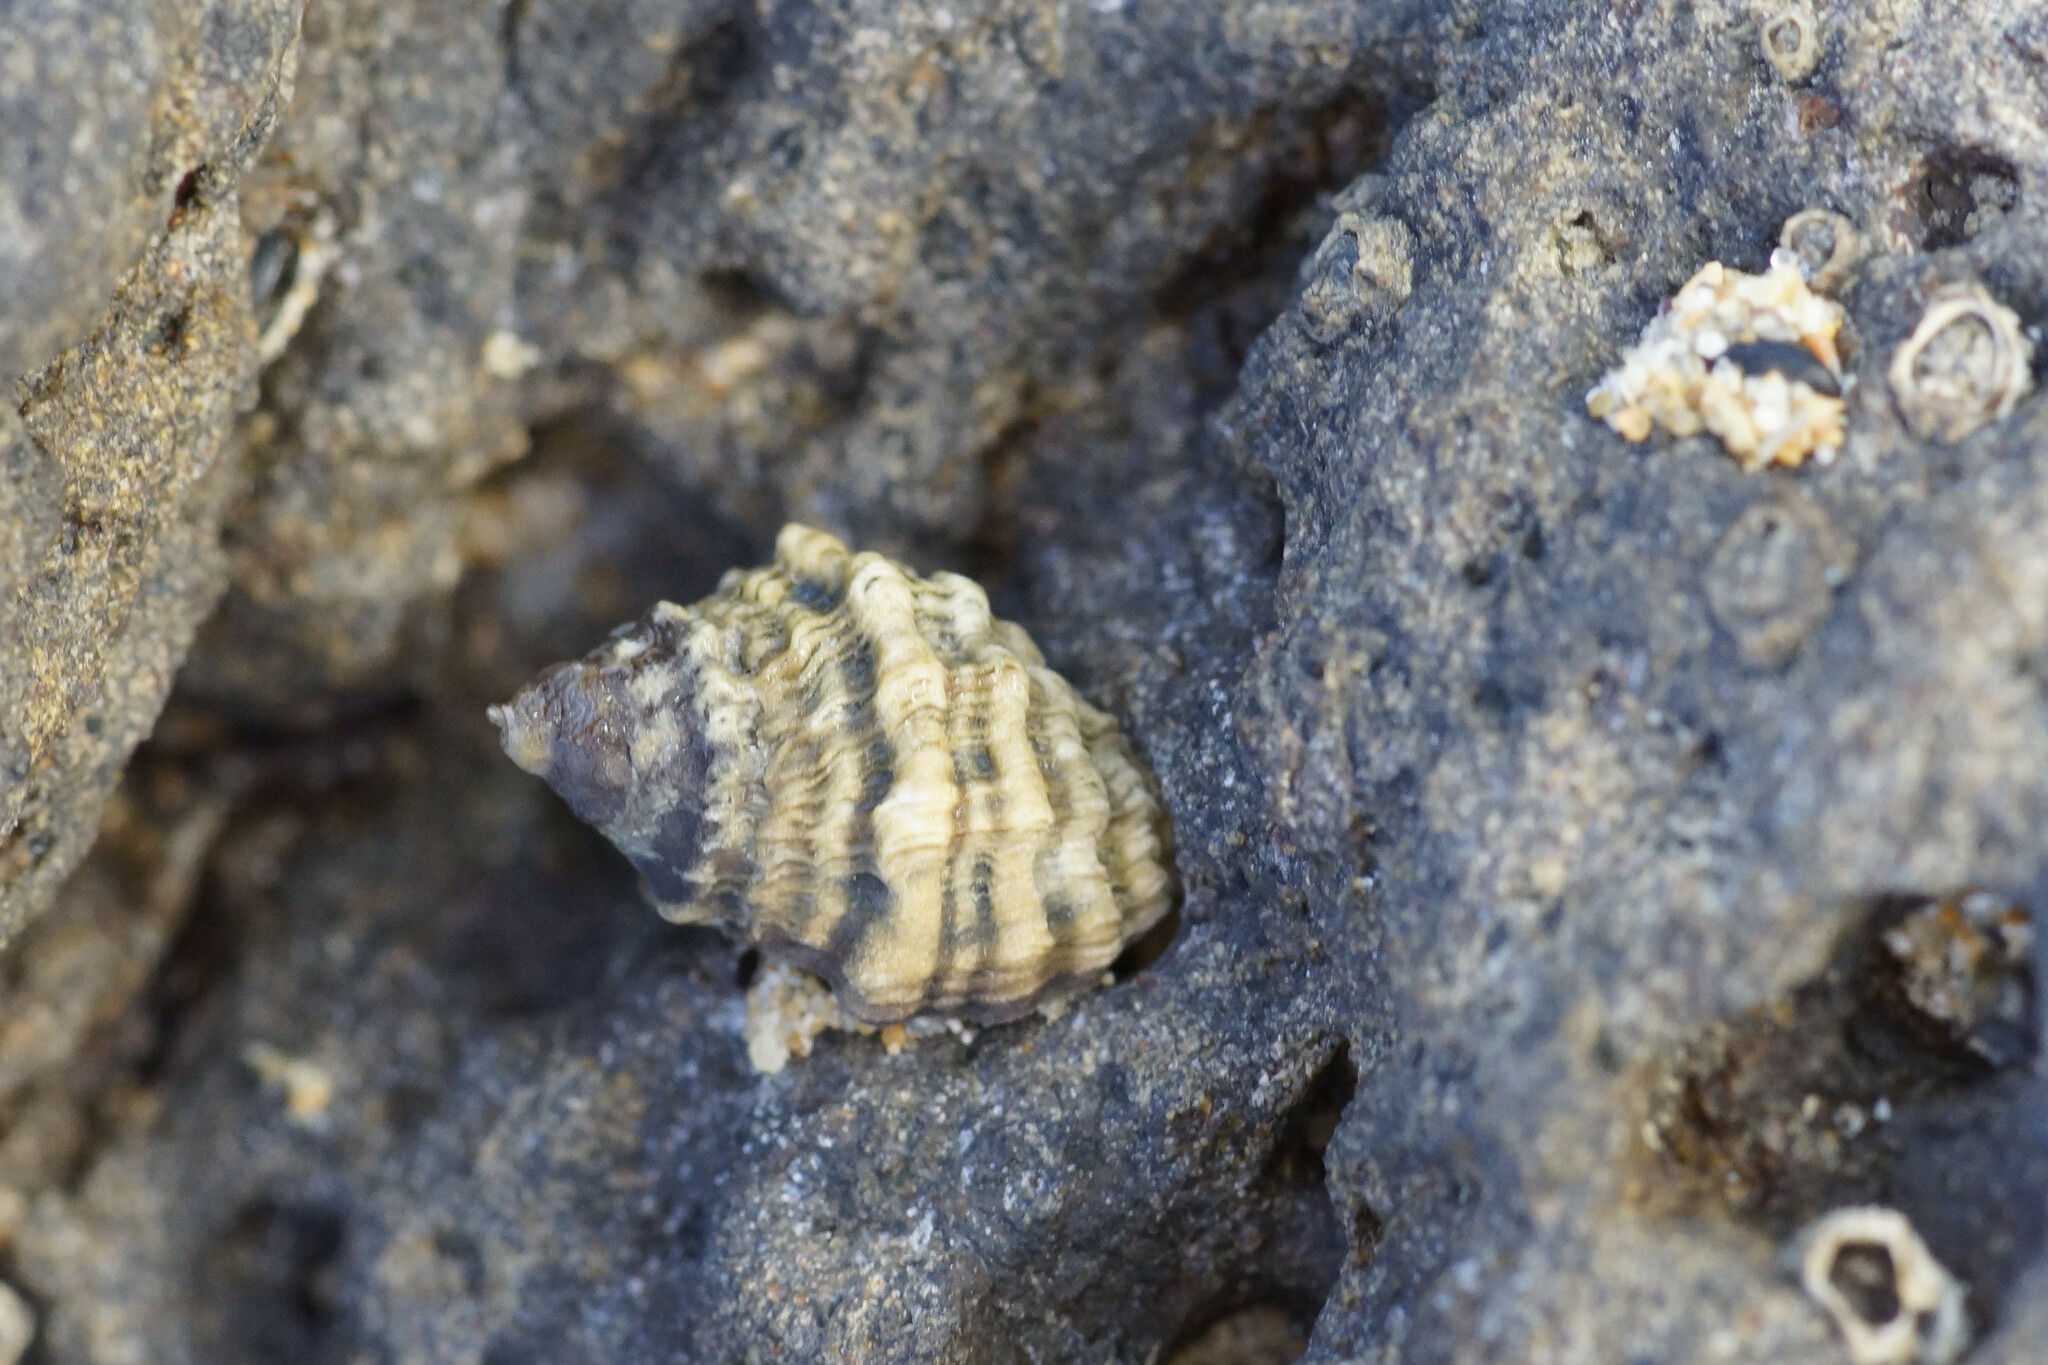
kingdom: Animalia
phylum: Mollusca
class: Gastropoda
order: Neogastropoda
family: Muricidae
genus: Bedeva
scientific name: Bedeva vinosa
